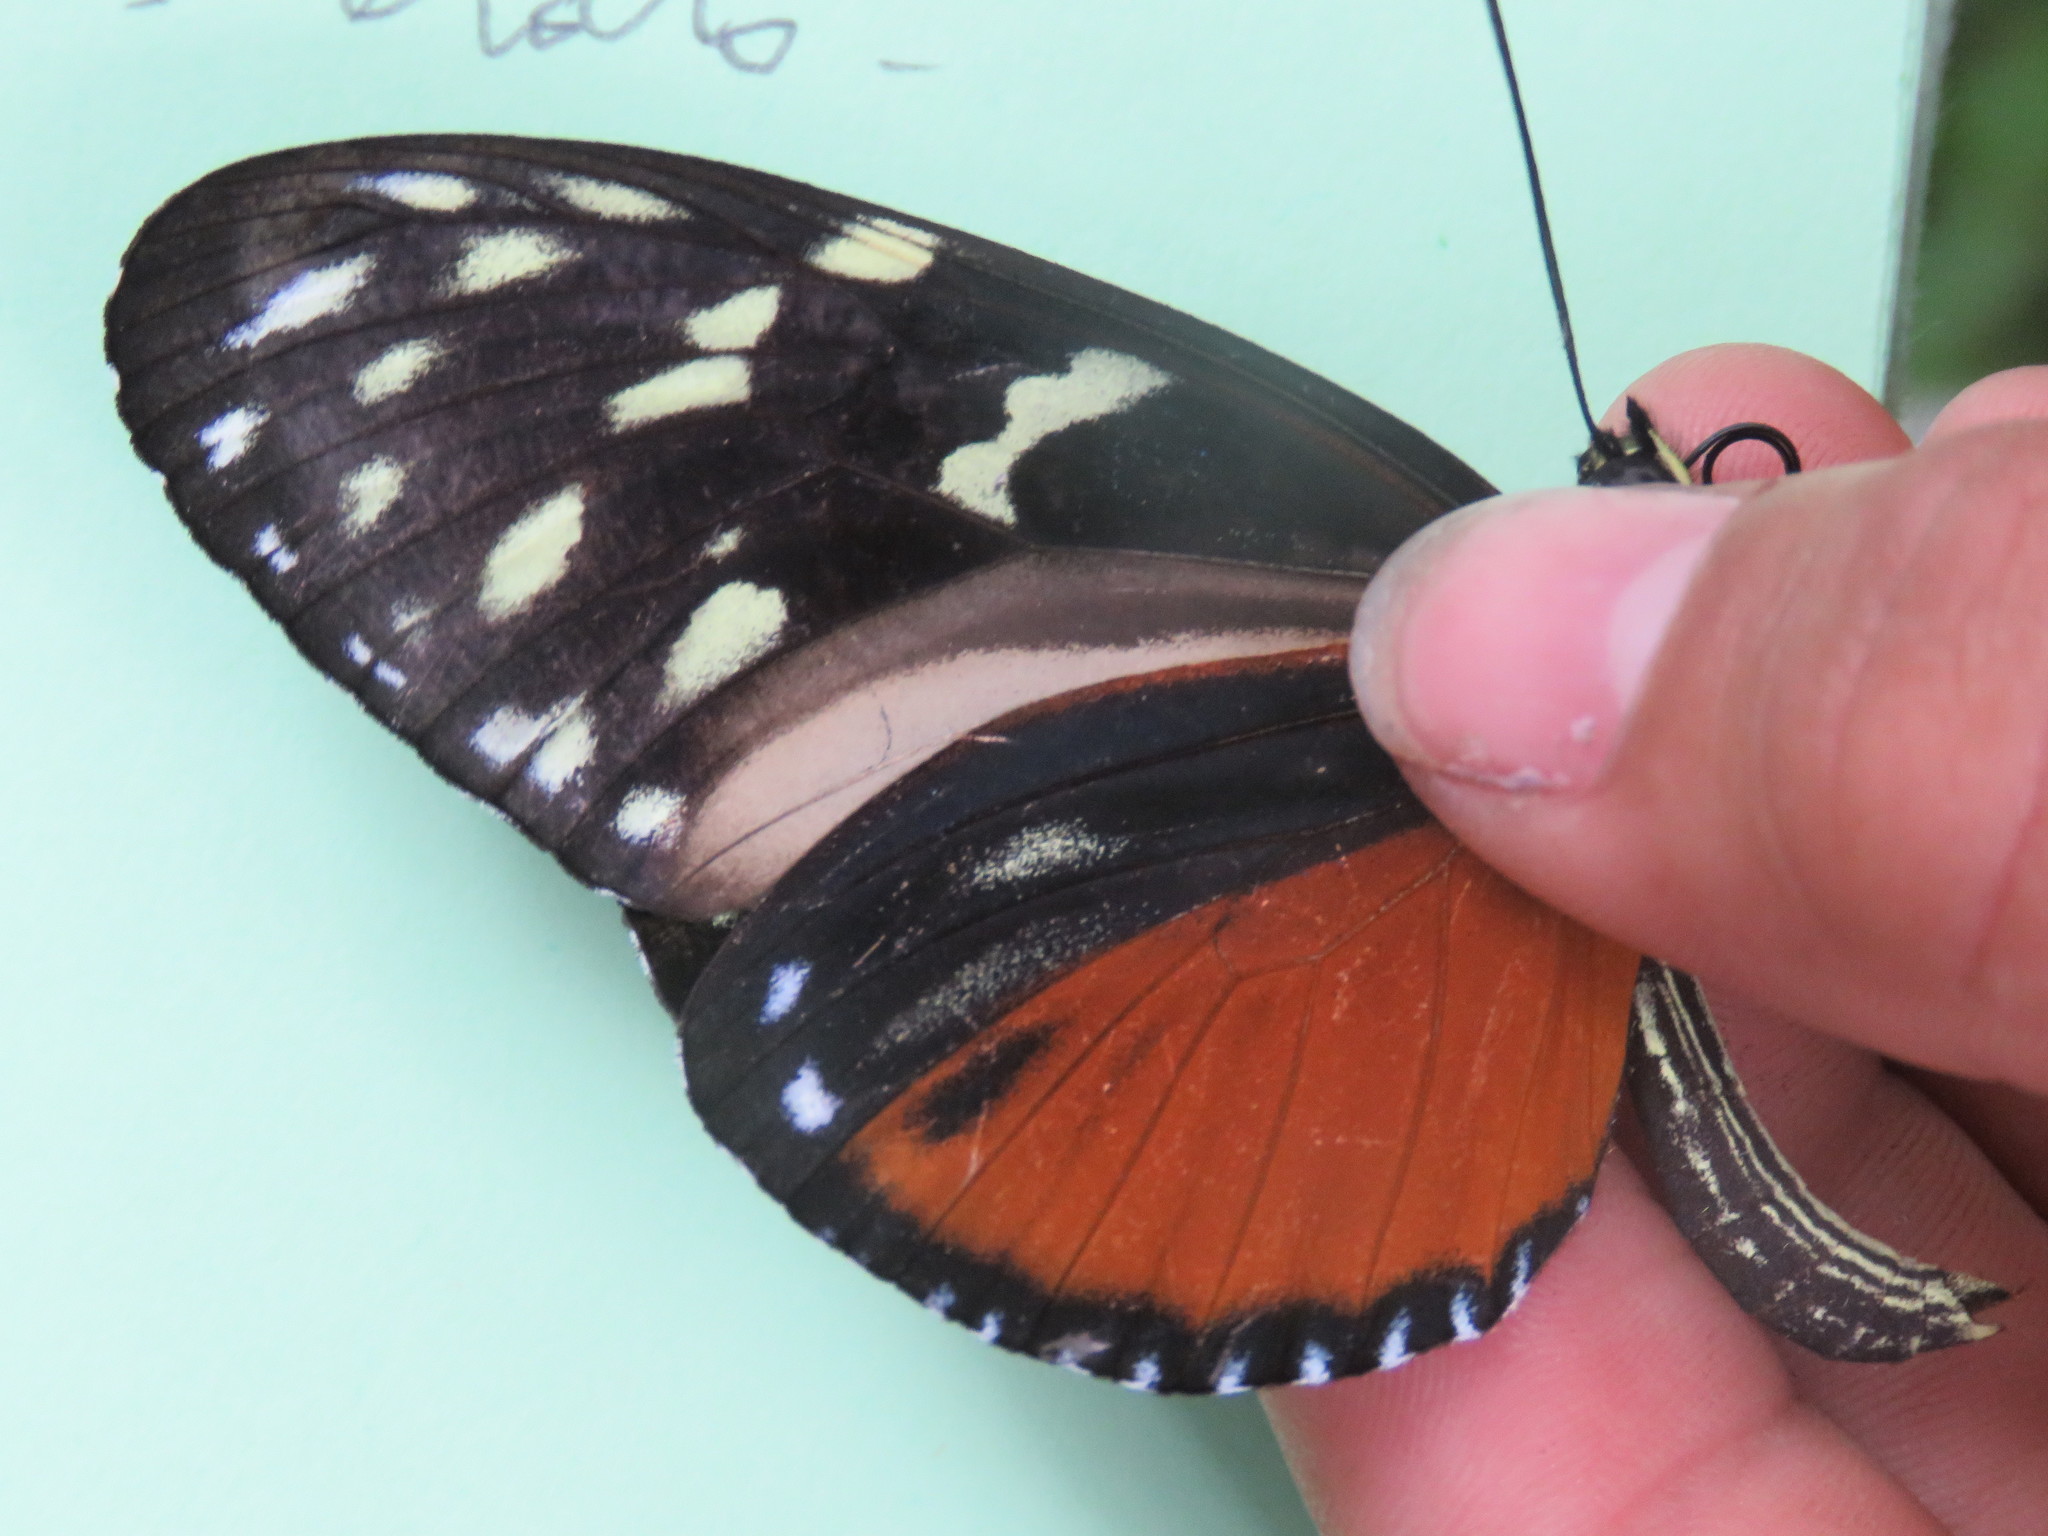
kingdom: Animalia
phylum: Arthropoda
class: Insecta
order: Lepidoptera
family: Nymphalidae
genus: Heliconius
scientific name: Heliconius hecale
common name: Tiger longwing
